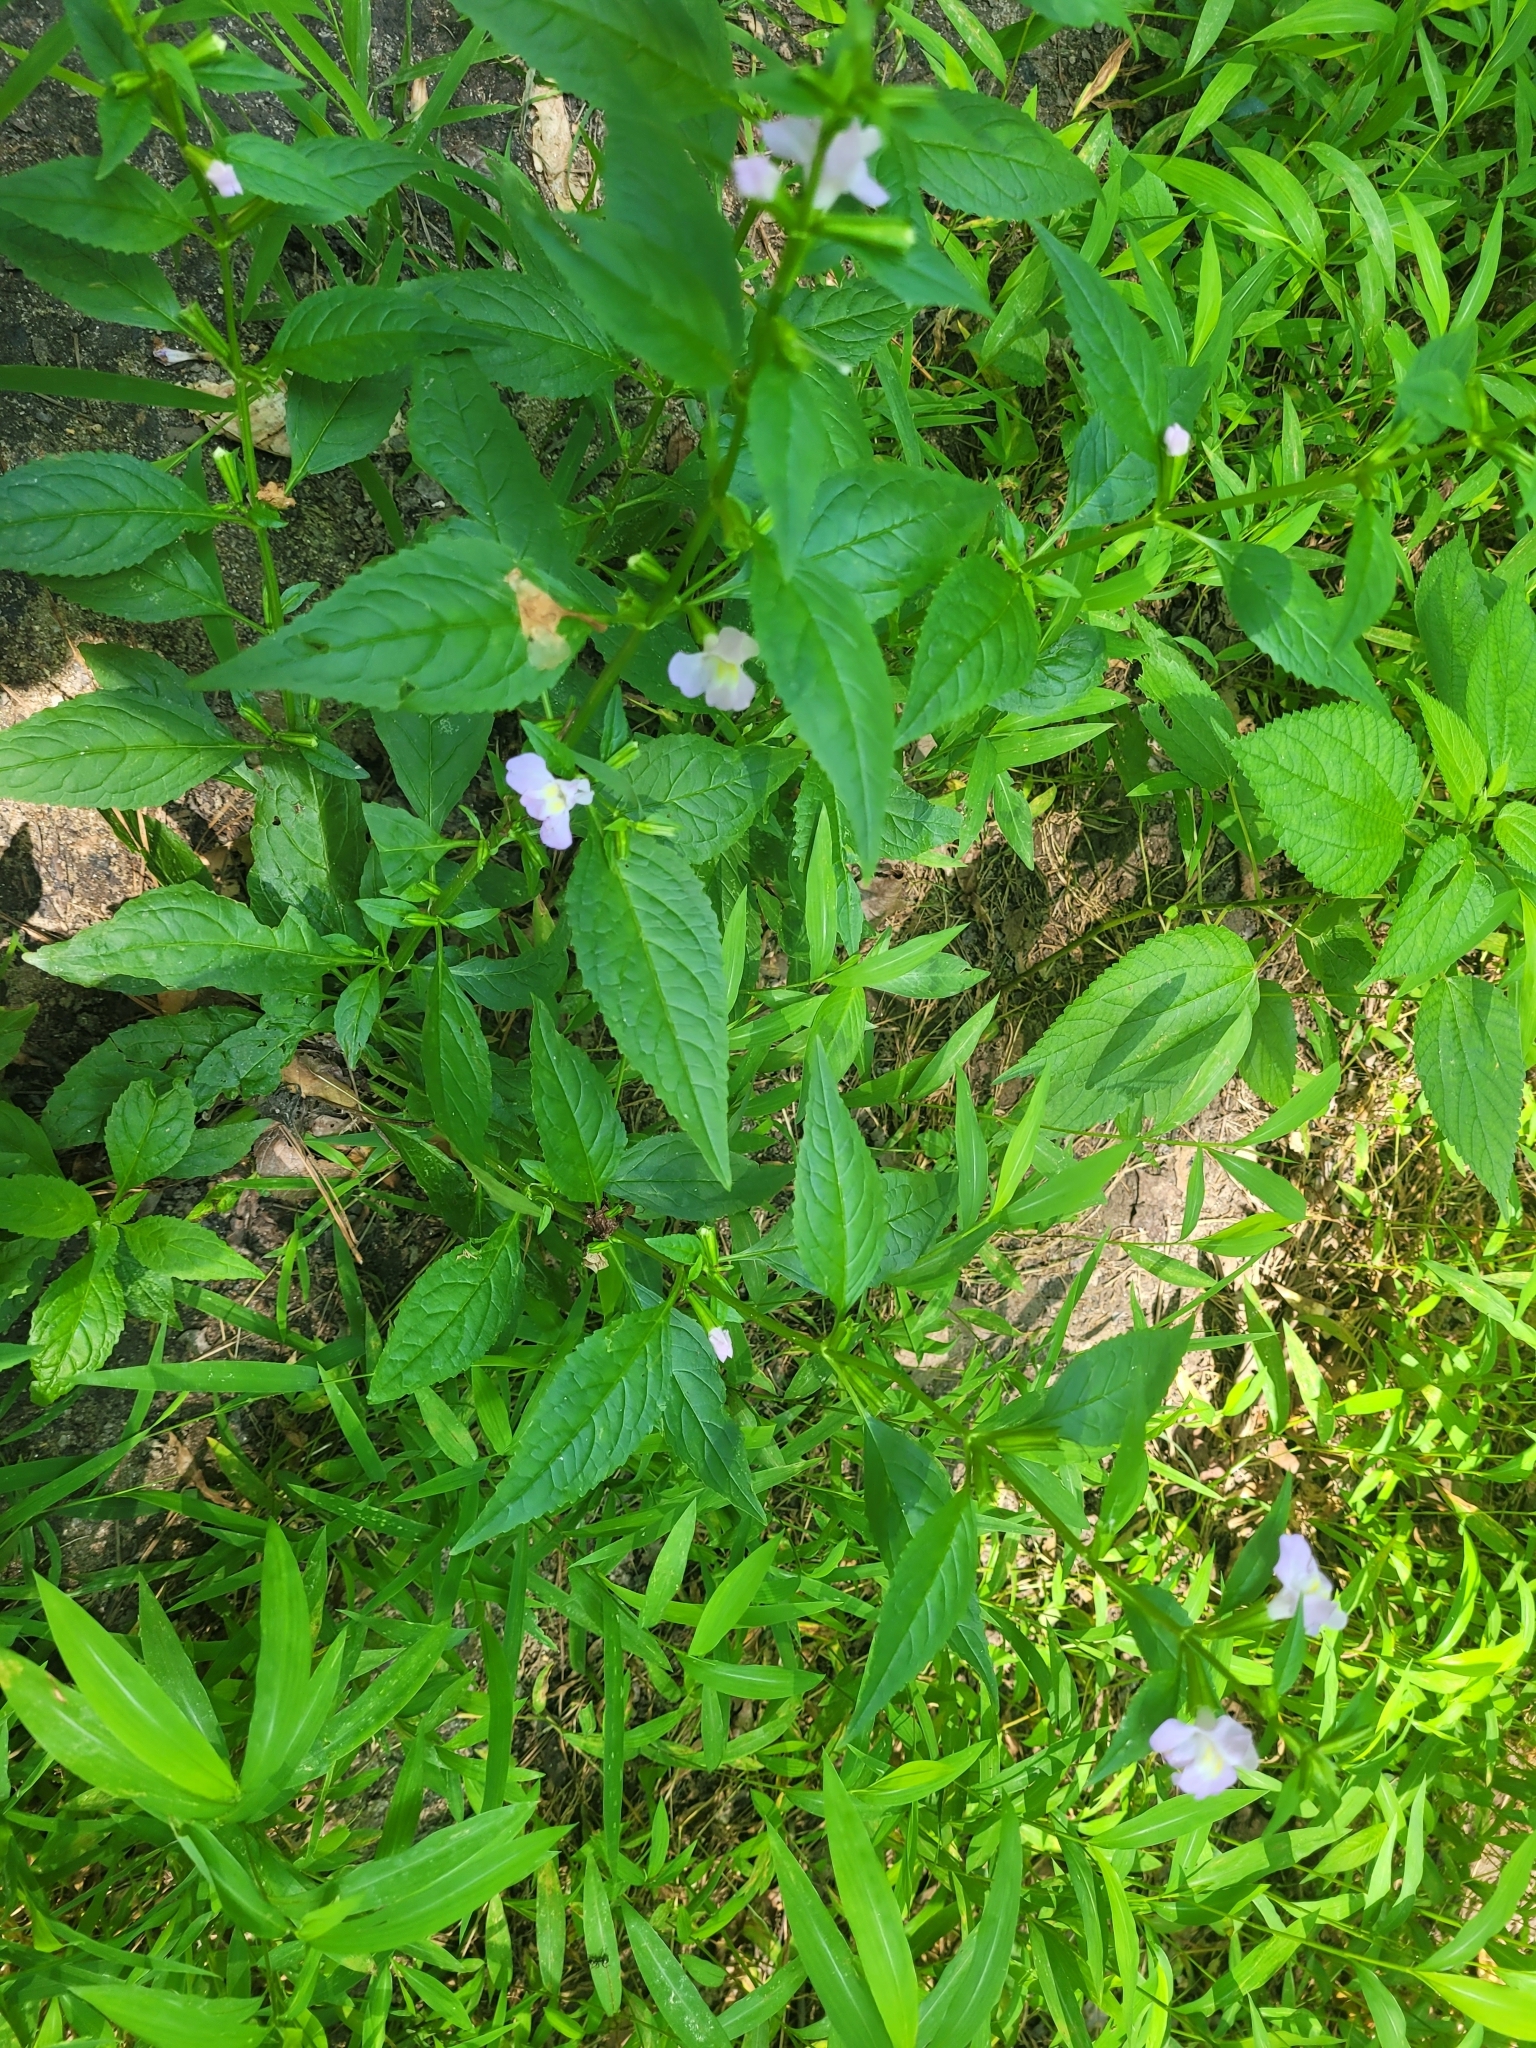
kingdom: Plantae
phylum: Tracheophyta
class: Magnoliopsida
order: Lamiales
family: Phrymaceae
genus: Mimulus
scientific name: Mimulus alatus
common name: Sharp-wing monkey-flower
